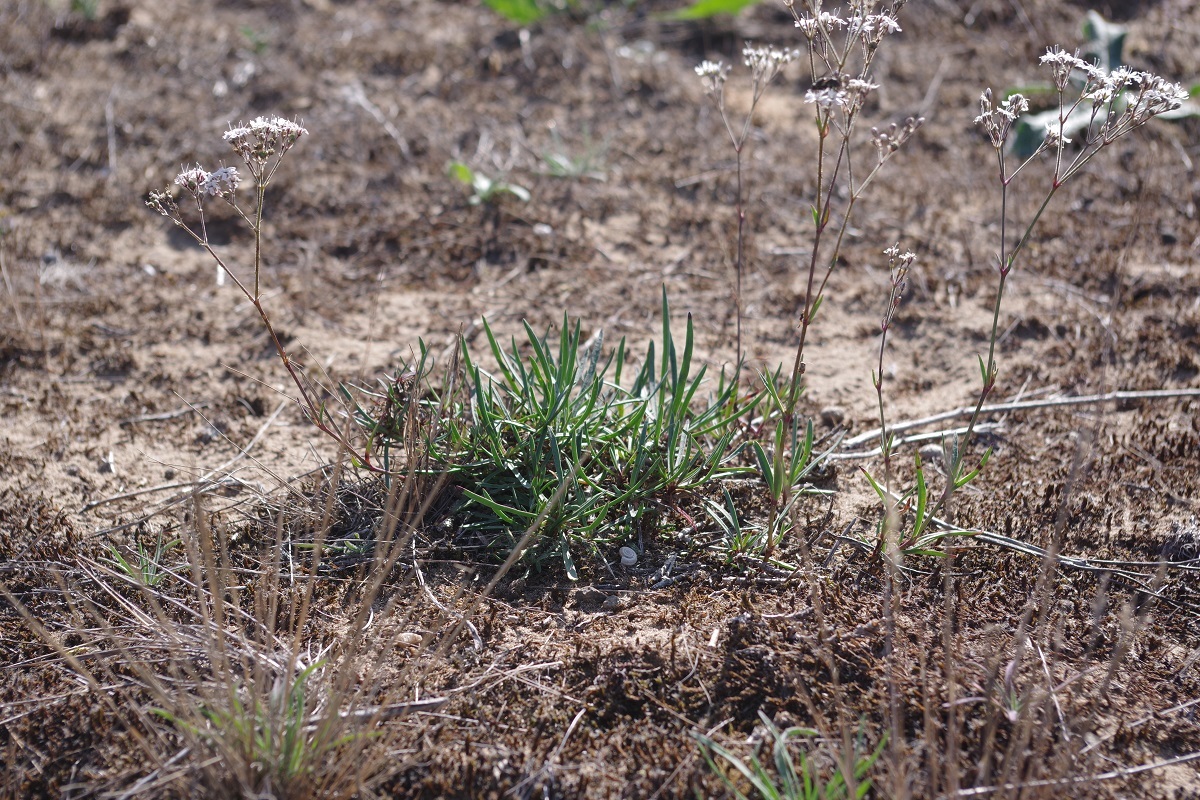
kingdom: Plantae
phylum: Tracheophyta
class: Magnoliopsida
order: Caryophyllales
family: Caryophyllaceae
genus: Gypsophila
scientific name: Gypsophila fastigiata
